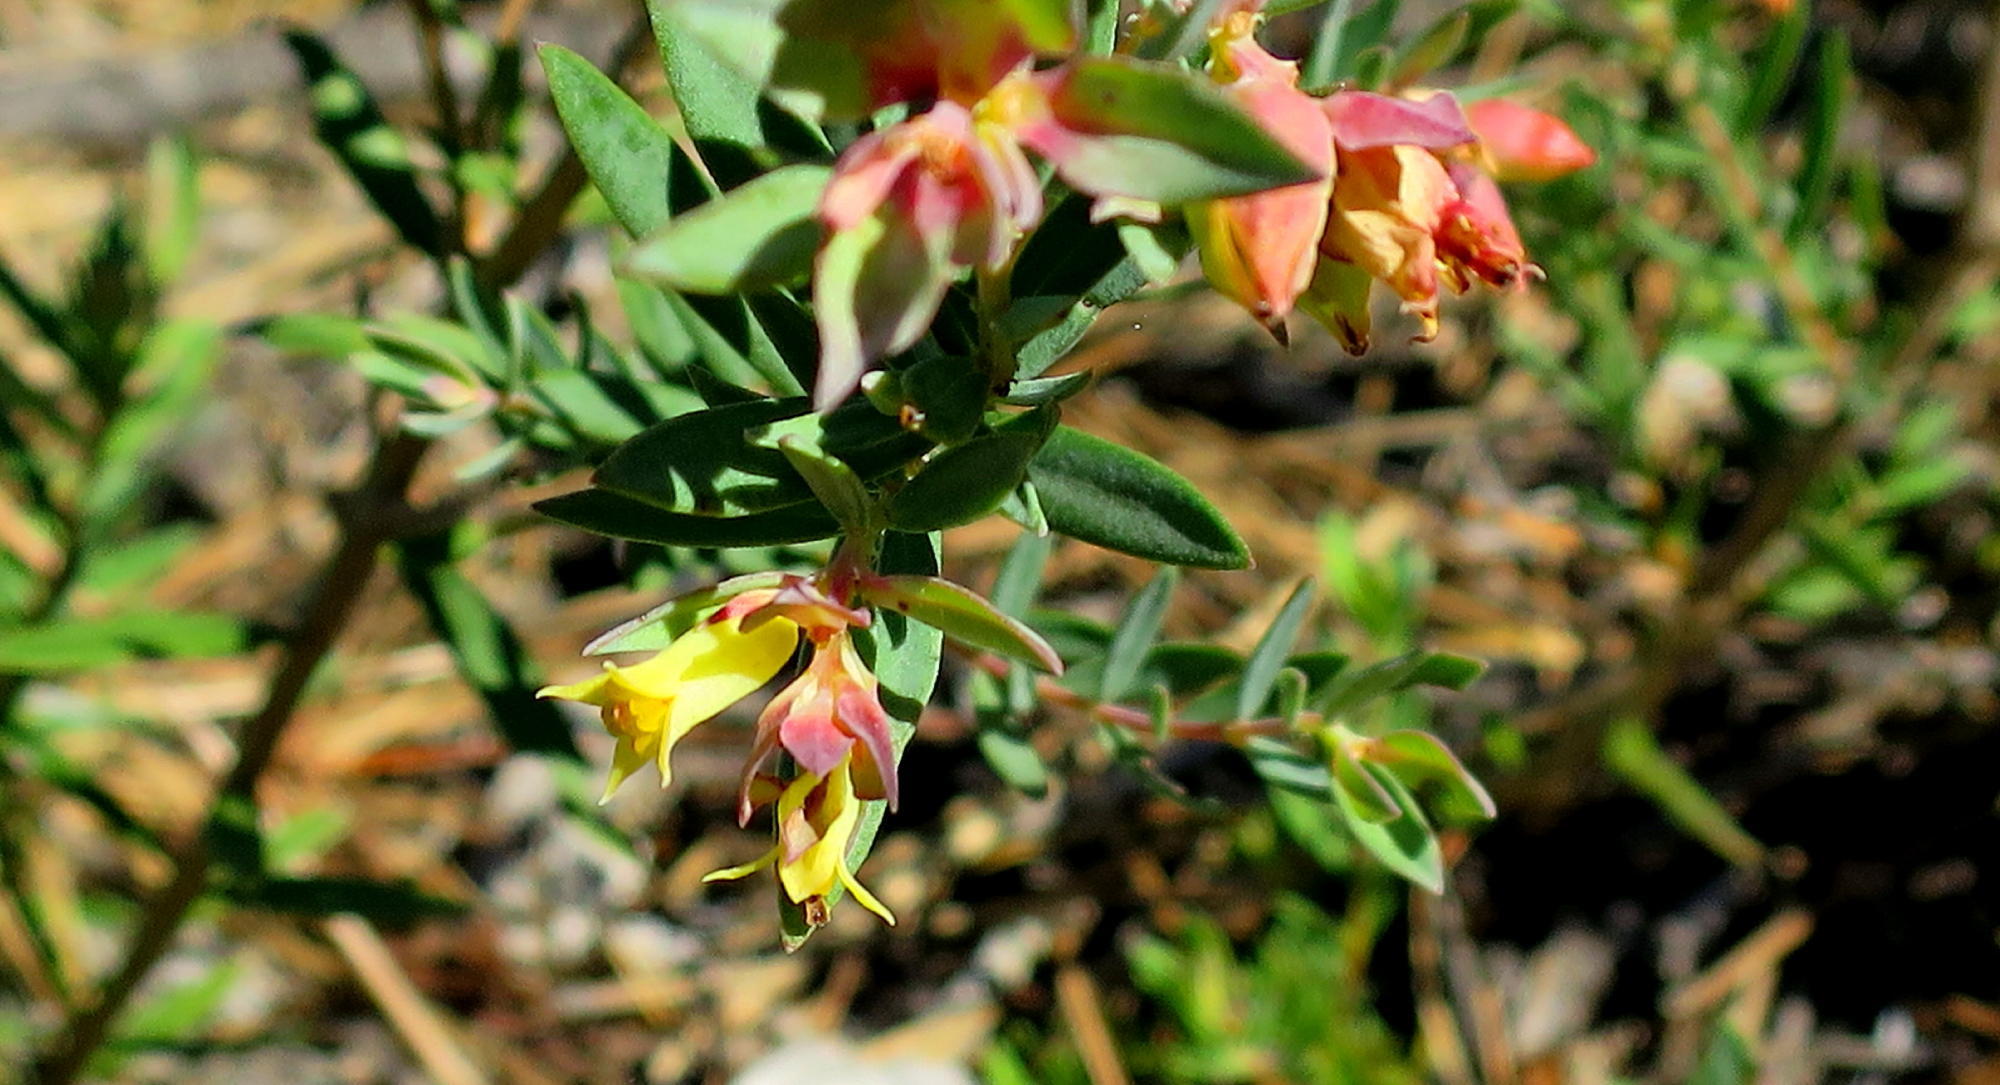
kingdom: Plantae
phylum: Tracheophyta
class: Magnoliopsida
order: Myrtales
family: Penaeaceae
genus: Penaea
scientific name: Penaea acutifolia
